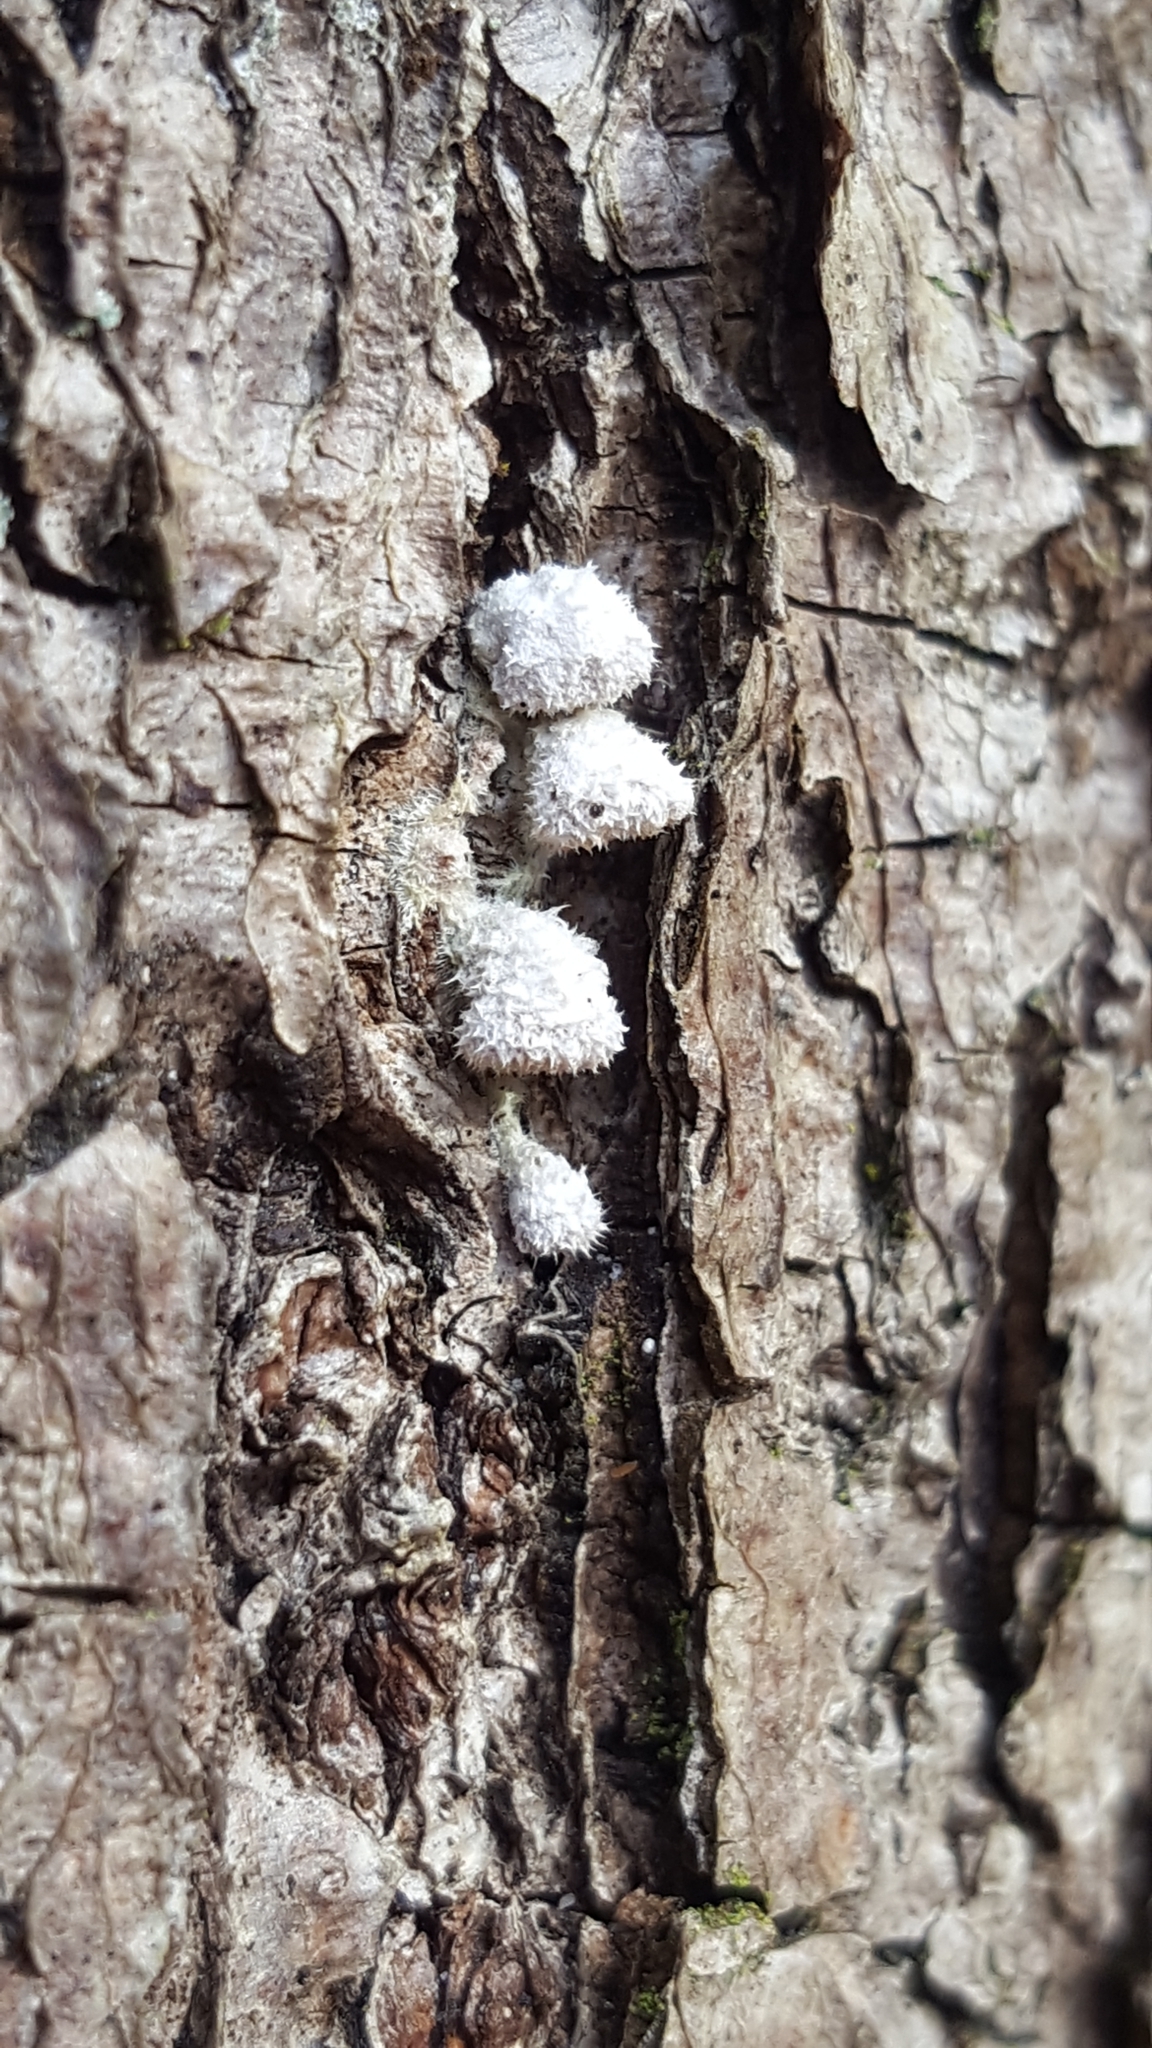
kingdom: Fungi
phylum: Basidiomycota
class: Agaricomycetes
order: Agaricales
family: Schizophyllaceae
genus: Schizophyllum
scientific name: Schizophyllum commune
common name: Common porecrust
